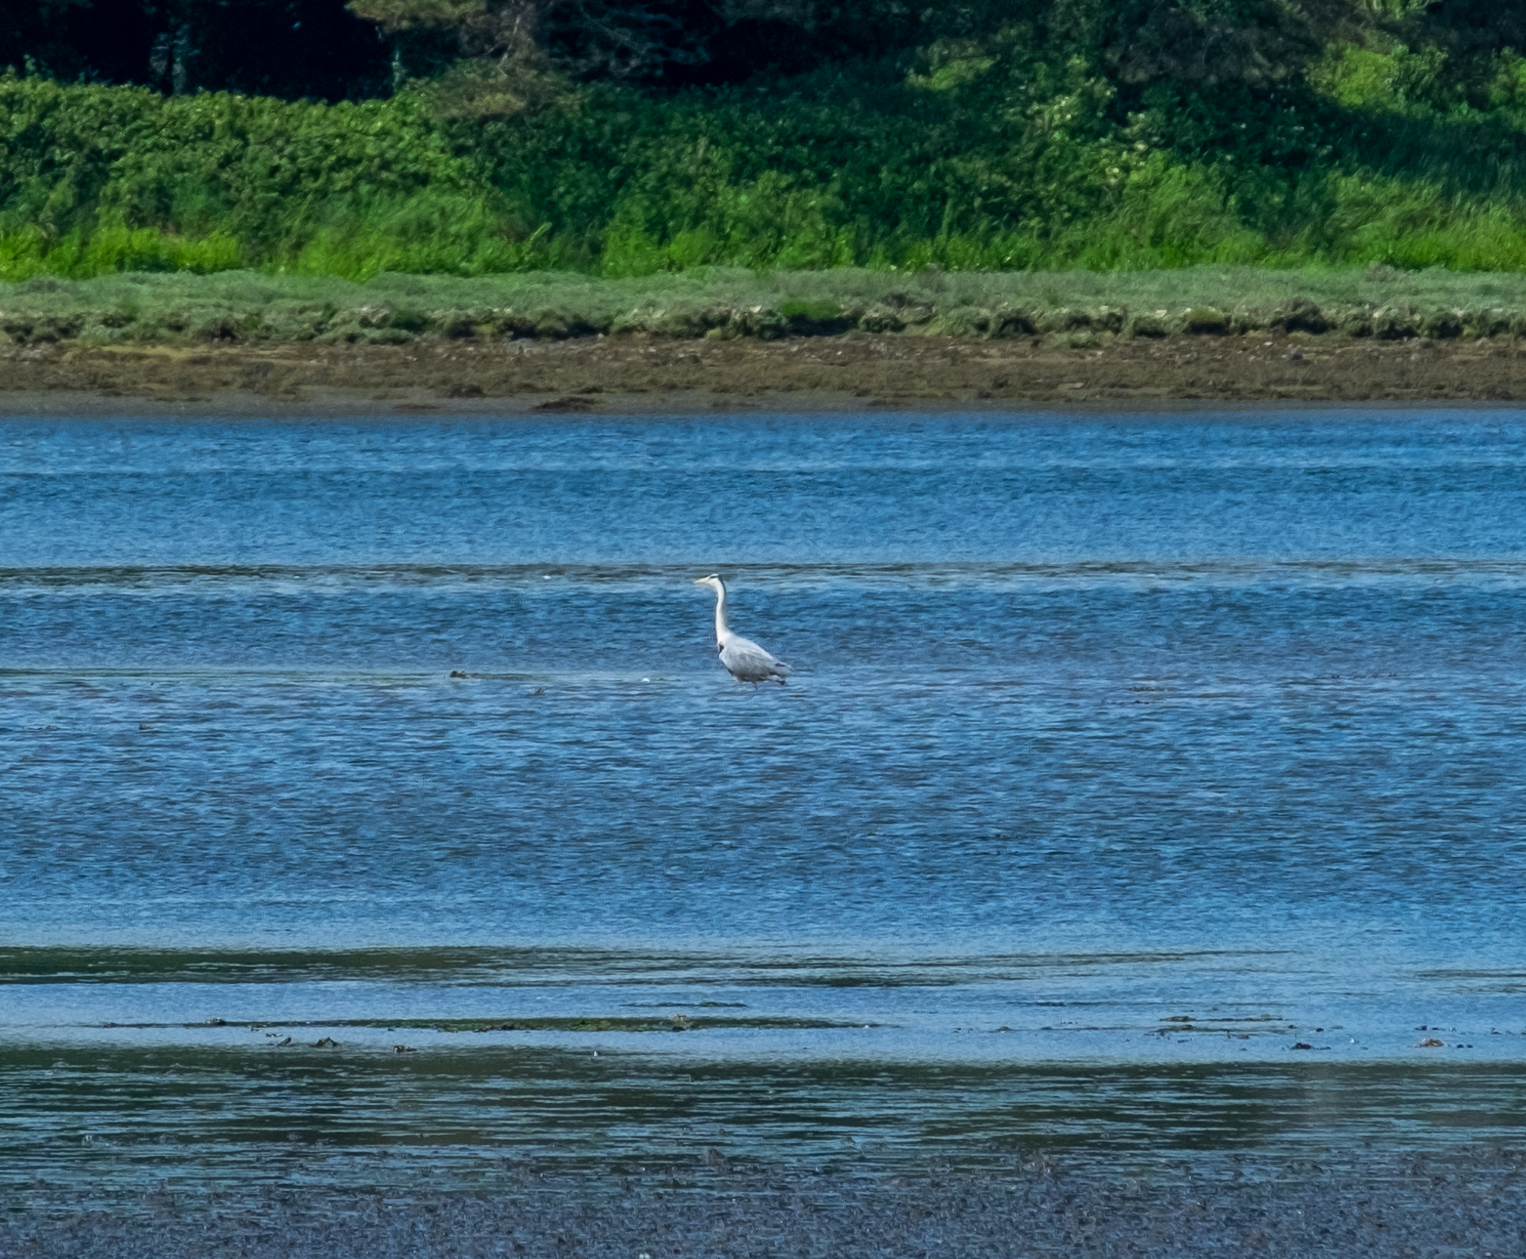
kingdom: Animalia
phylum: Chordata
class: Aves
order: Pelecaniformes
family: Ardeidae
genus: Ardea
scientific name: Ardea cinerea
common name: Grey heron
